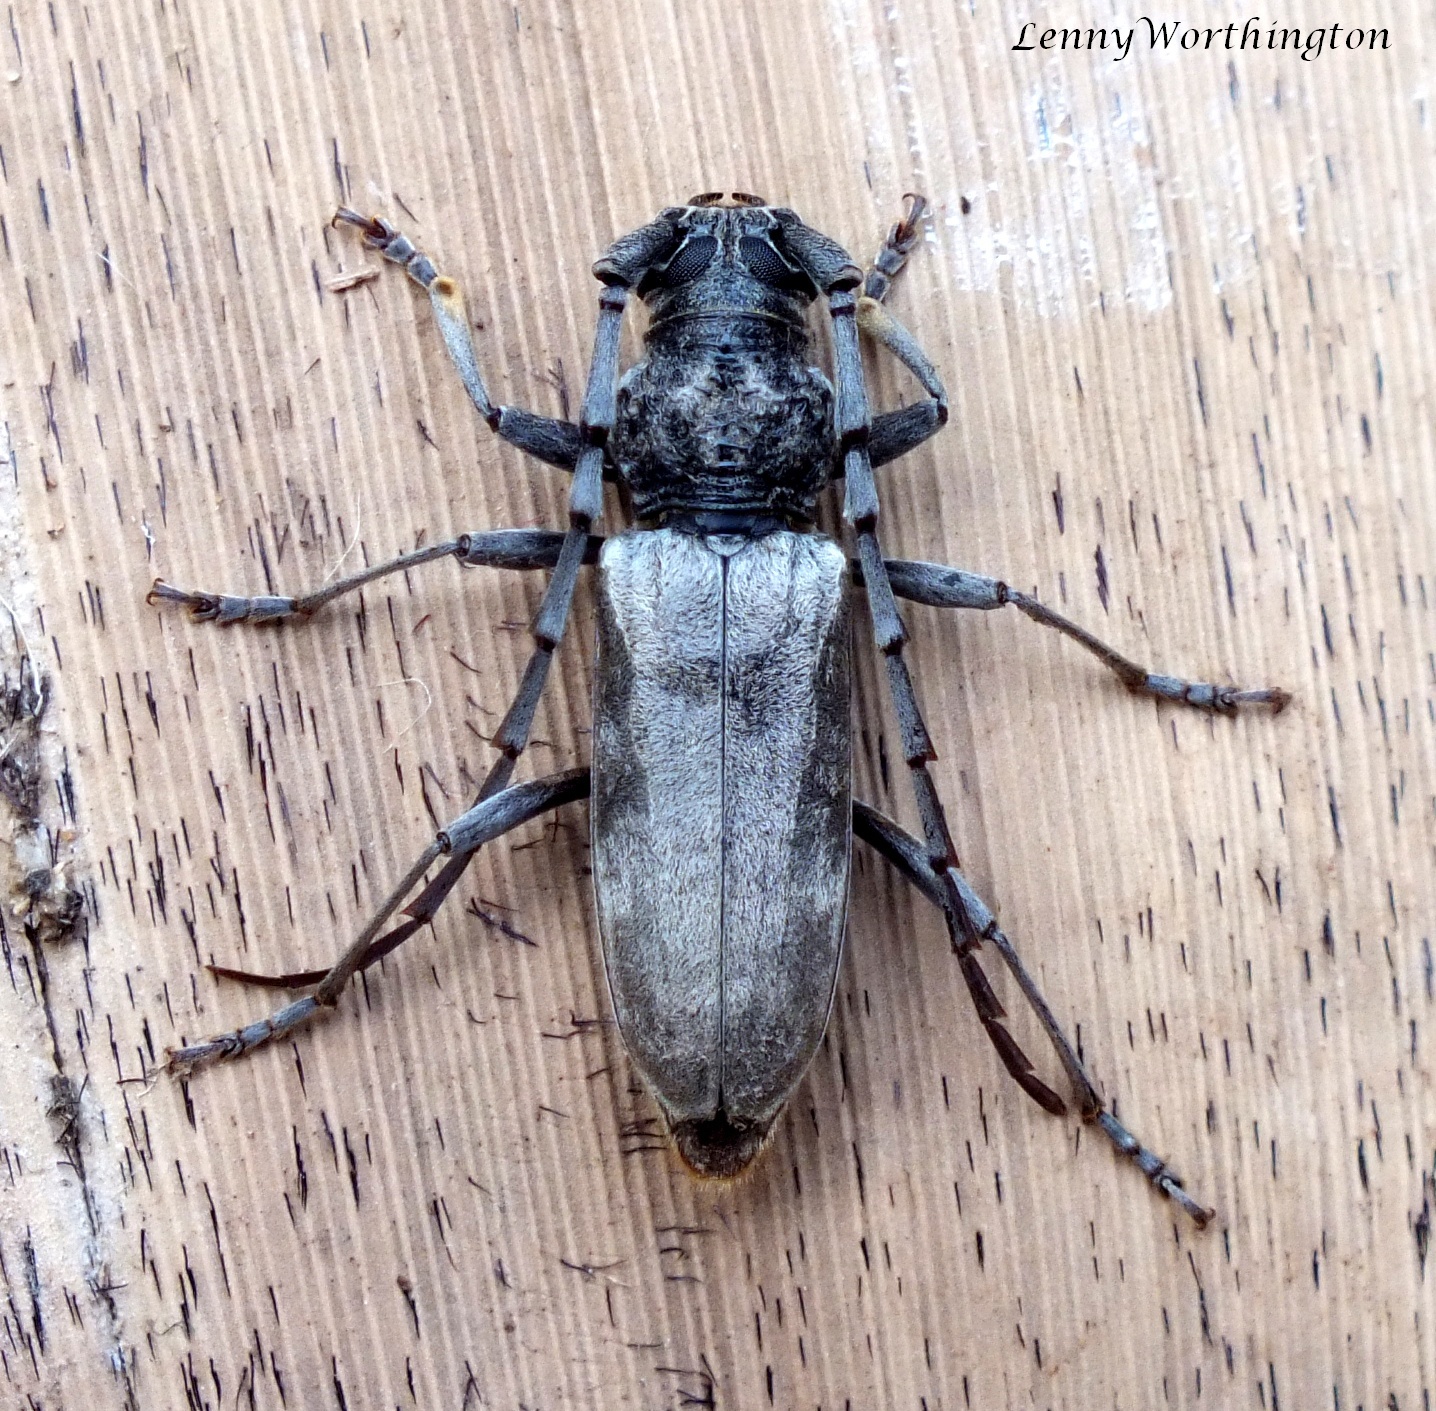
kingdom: Animalia
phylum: Arthropoda
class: Insecta
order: Coleoptera
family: Cerambycidae
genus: Tapinolachnus
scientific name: Tapinolachnus cinereus
